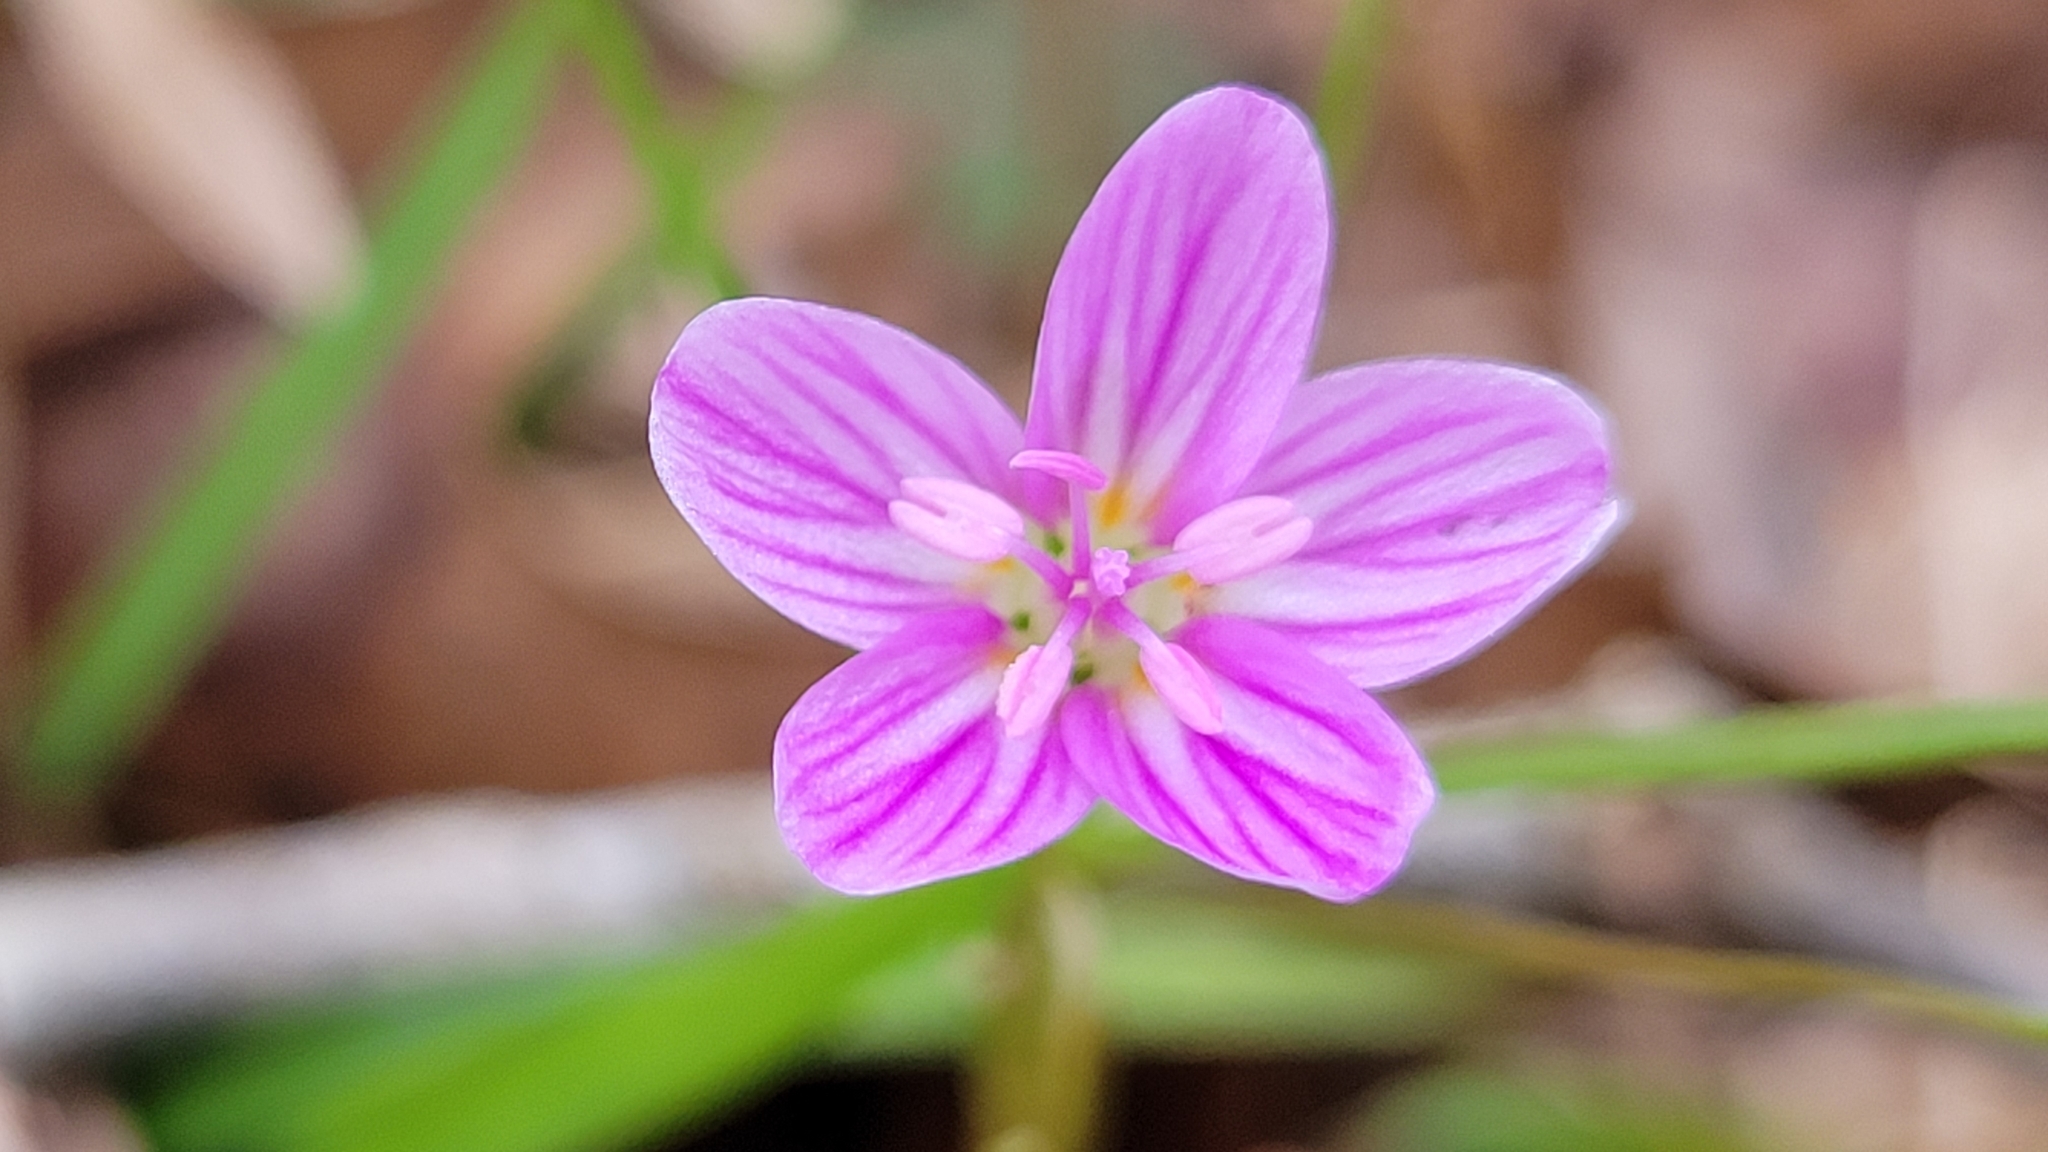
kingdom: Plantae
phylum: Tracheophyta
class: Magnoliopsida
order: Caryophyllales
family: Montiaceae
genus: Claytonia
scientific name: Claytonia virginica
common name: Virginia springbeauty
